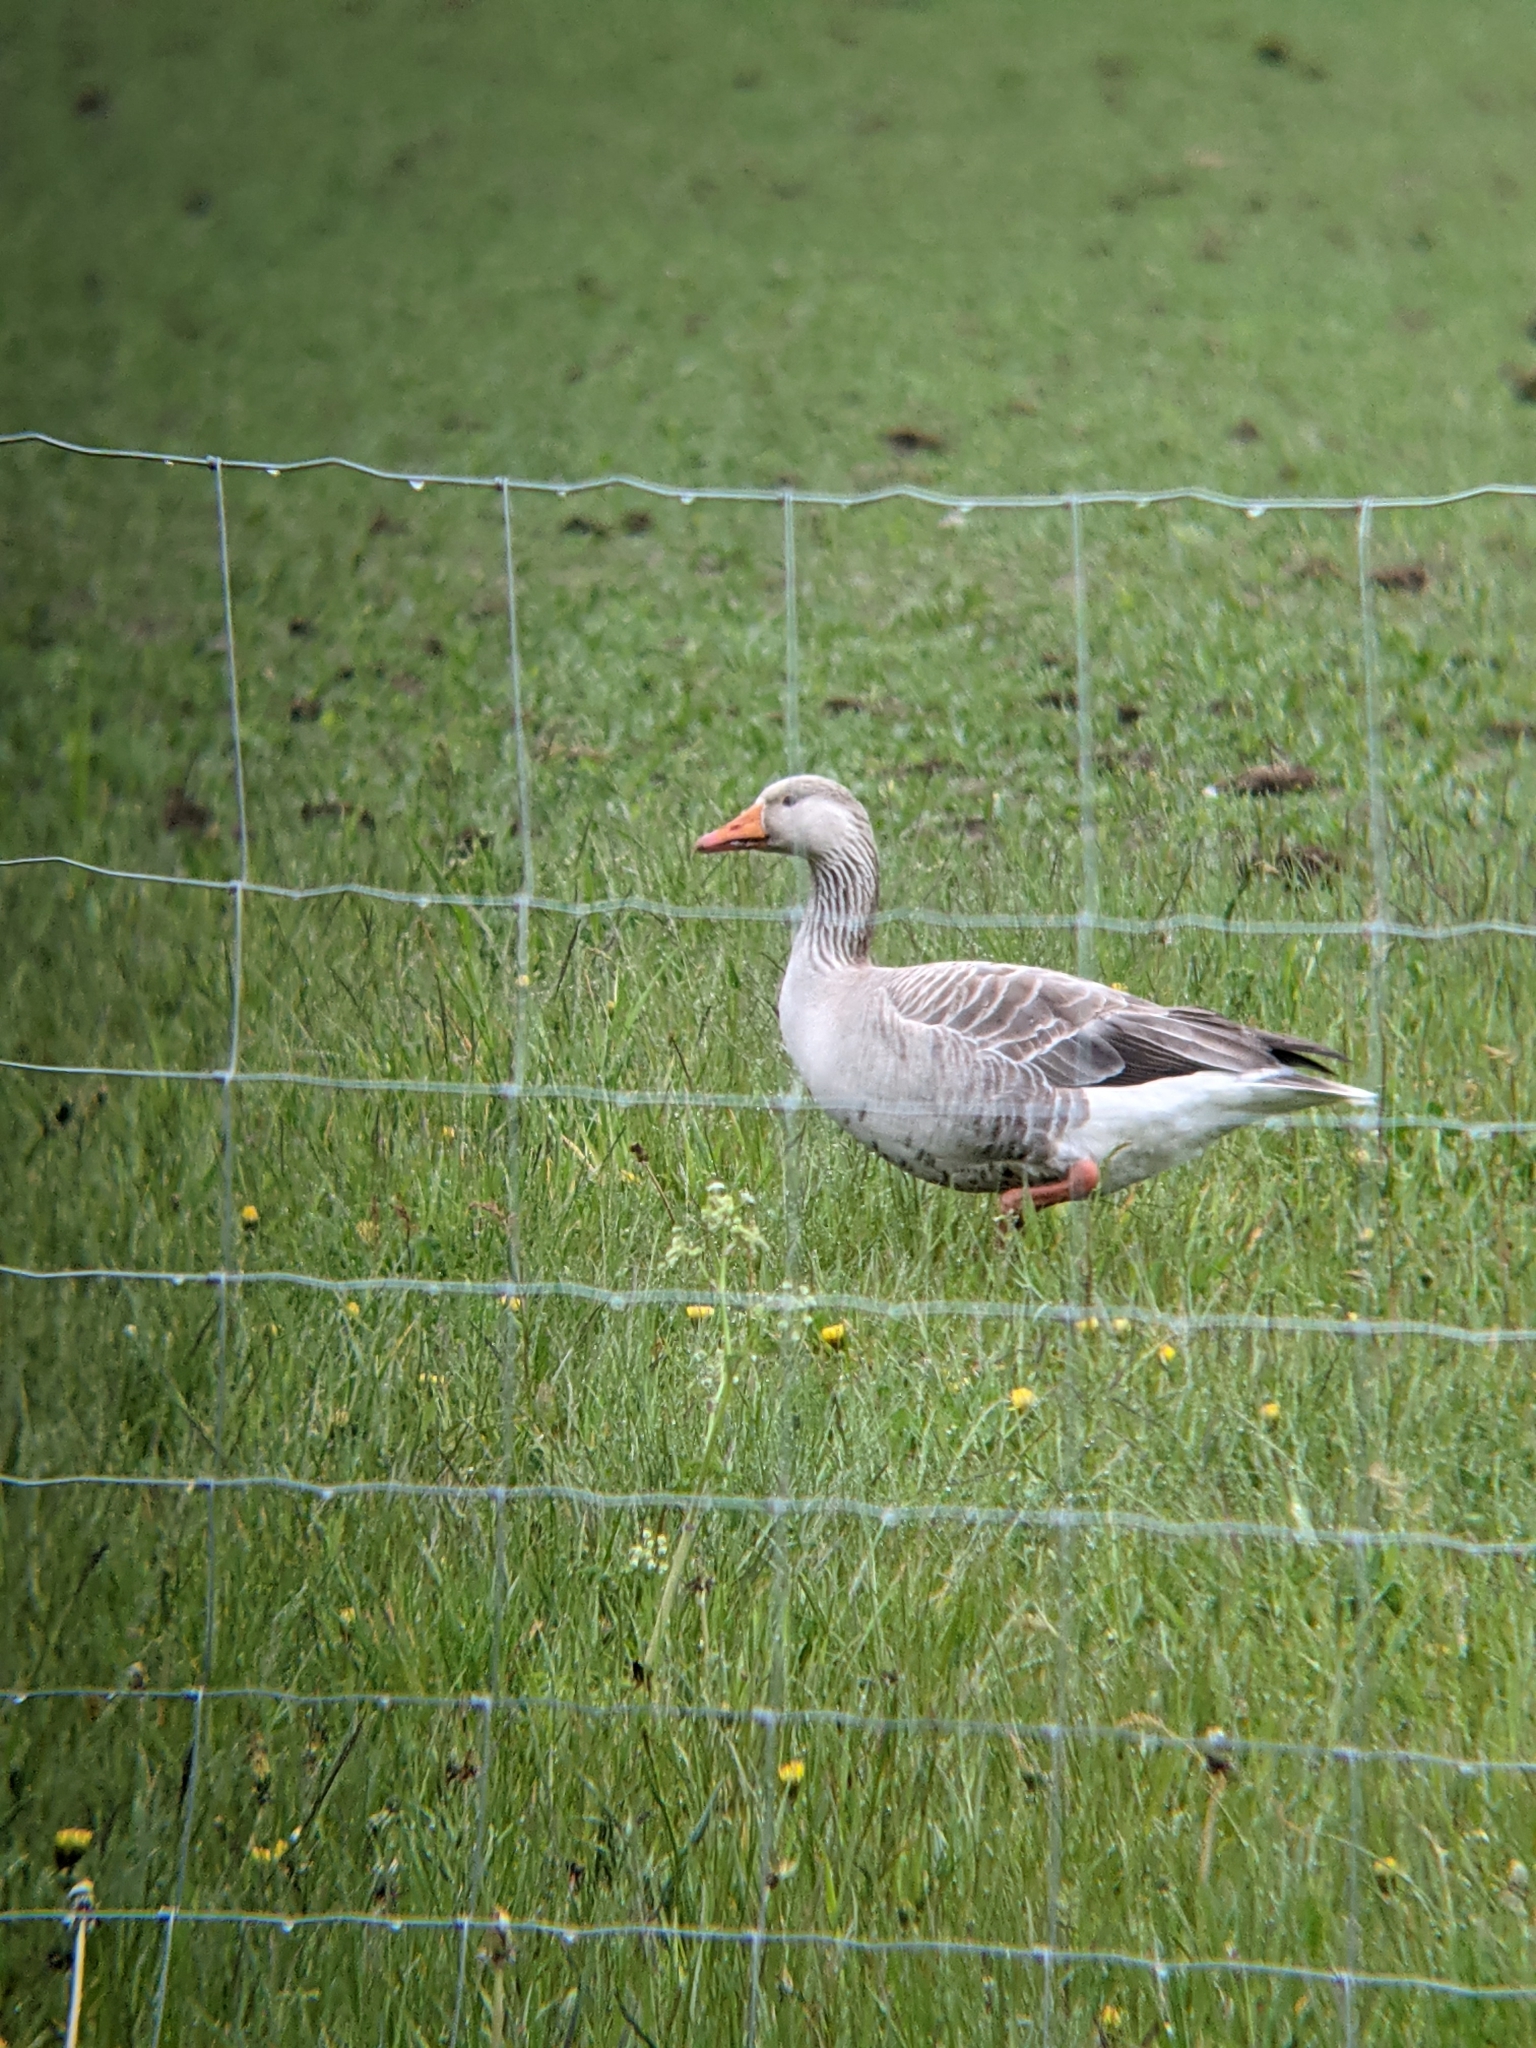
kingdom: Animalia
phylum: Chordata
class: Aves
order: Anseriformes
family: Anatidae
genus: Anser
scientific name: Anser anser
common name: Greylag goose
